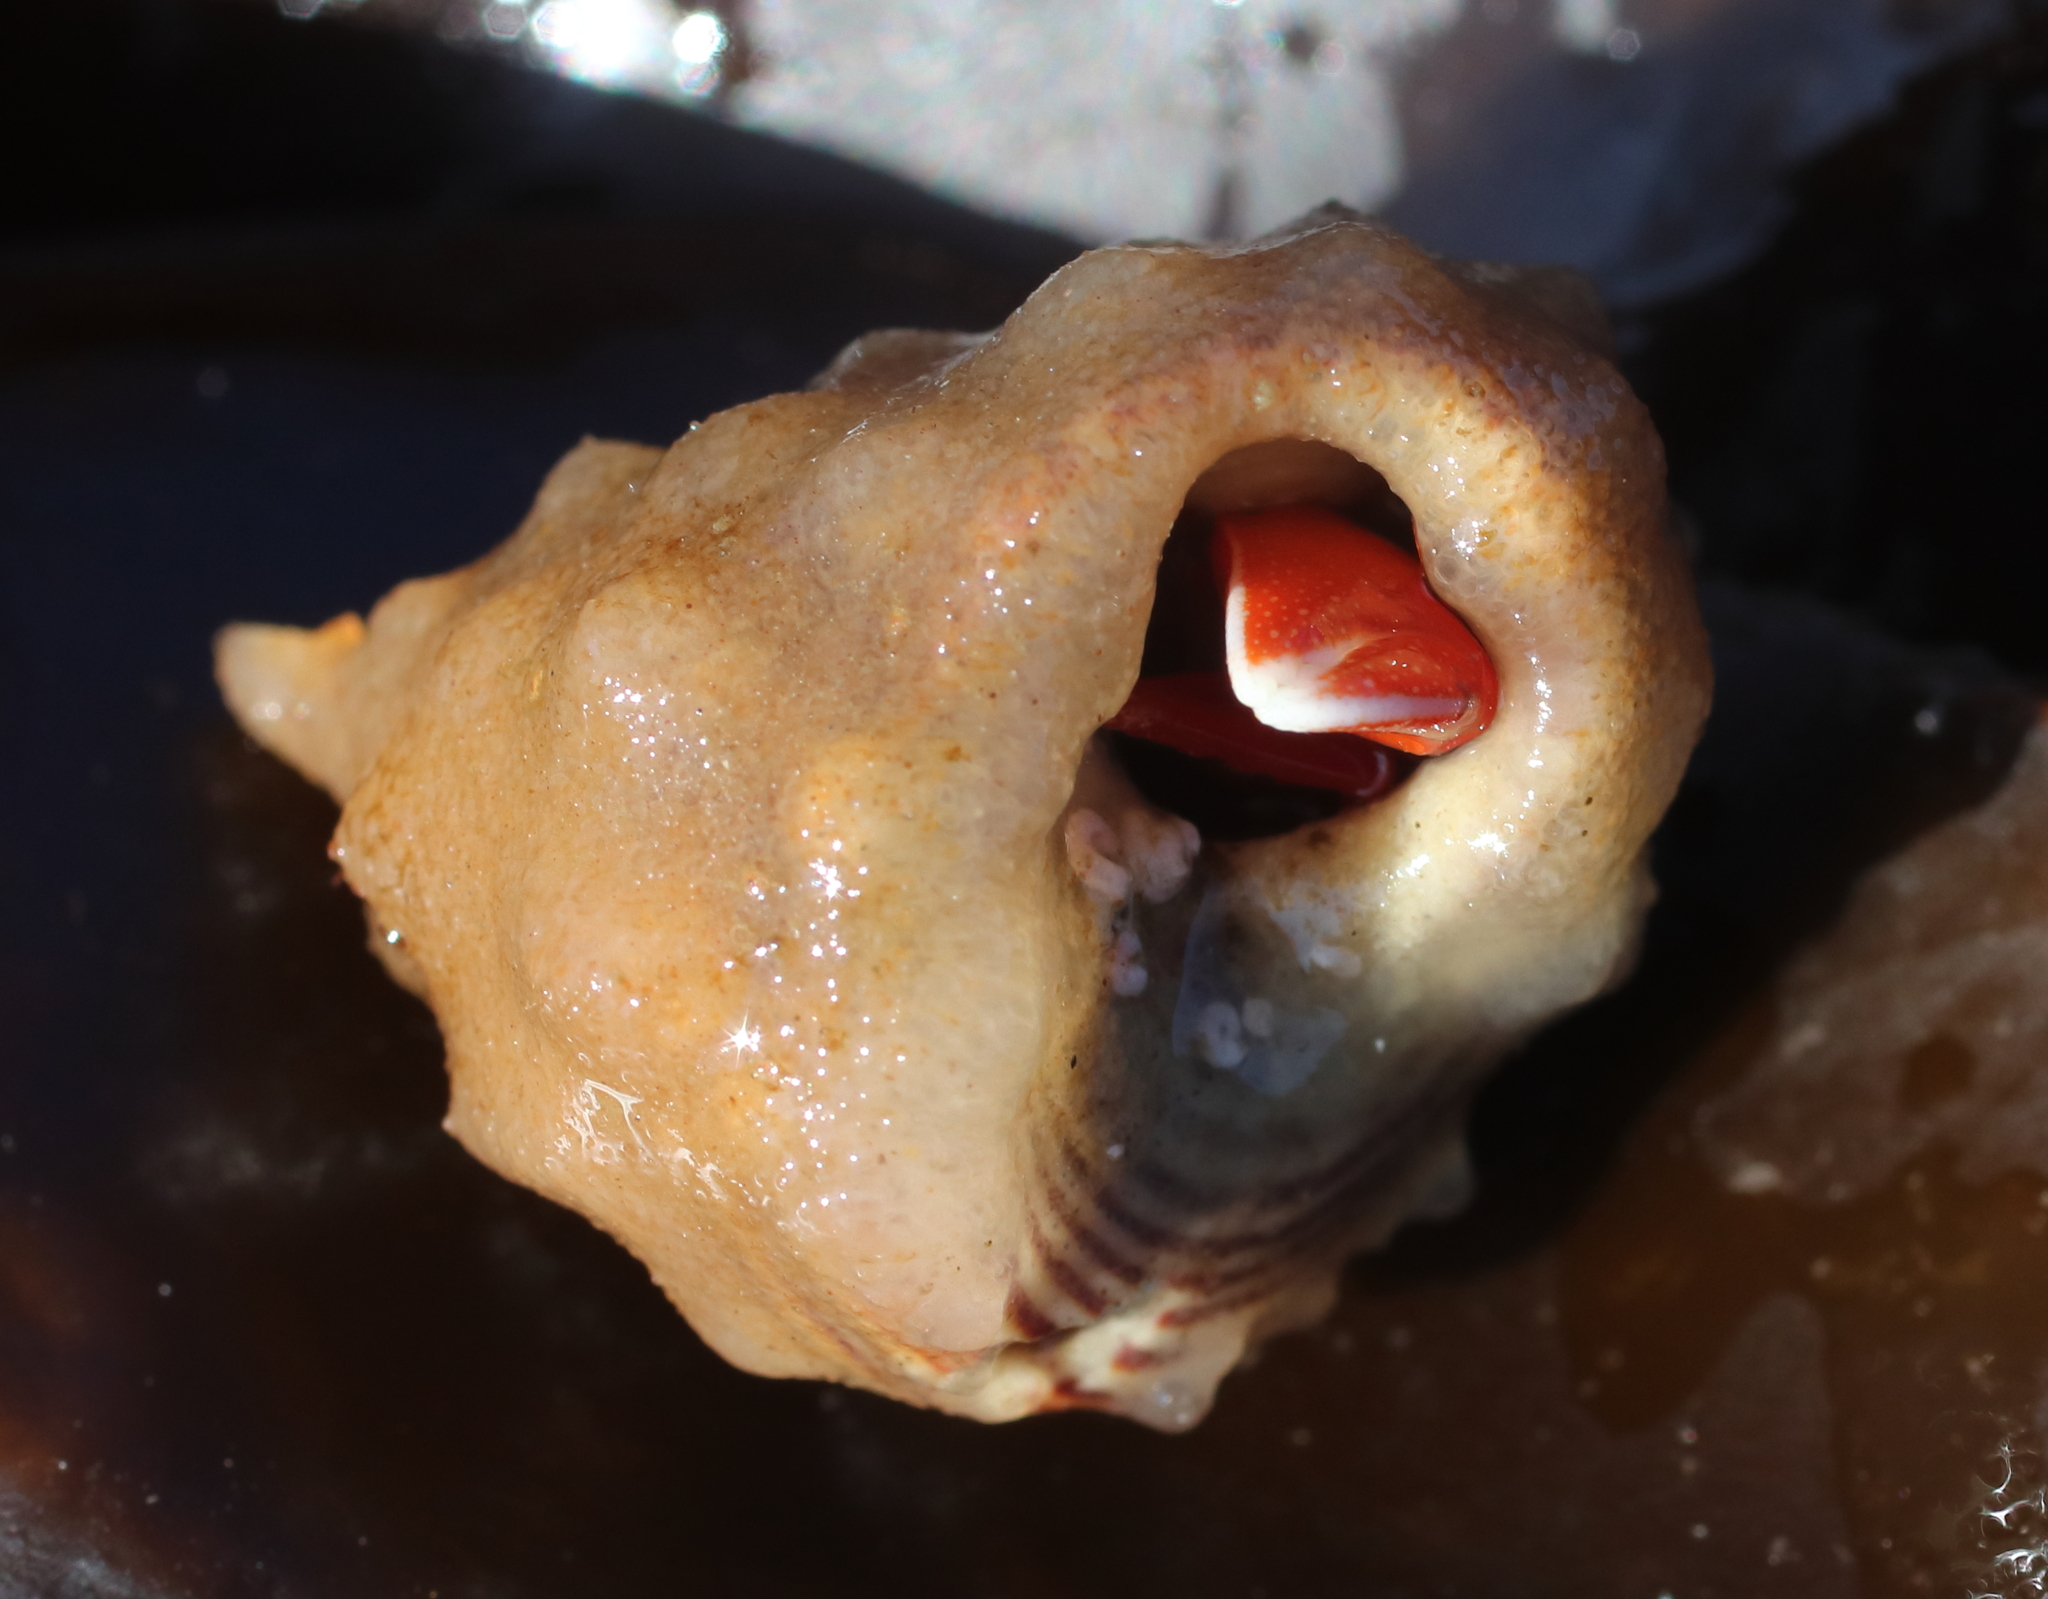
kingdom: Animalia
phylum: Porifera
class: Demospongiae
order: Suberitida
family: Suberitidae
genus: Suberites
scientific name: Suberites latus
